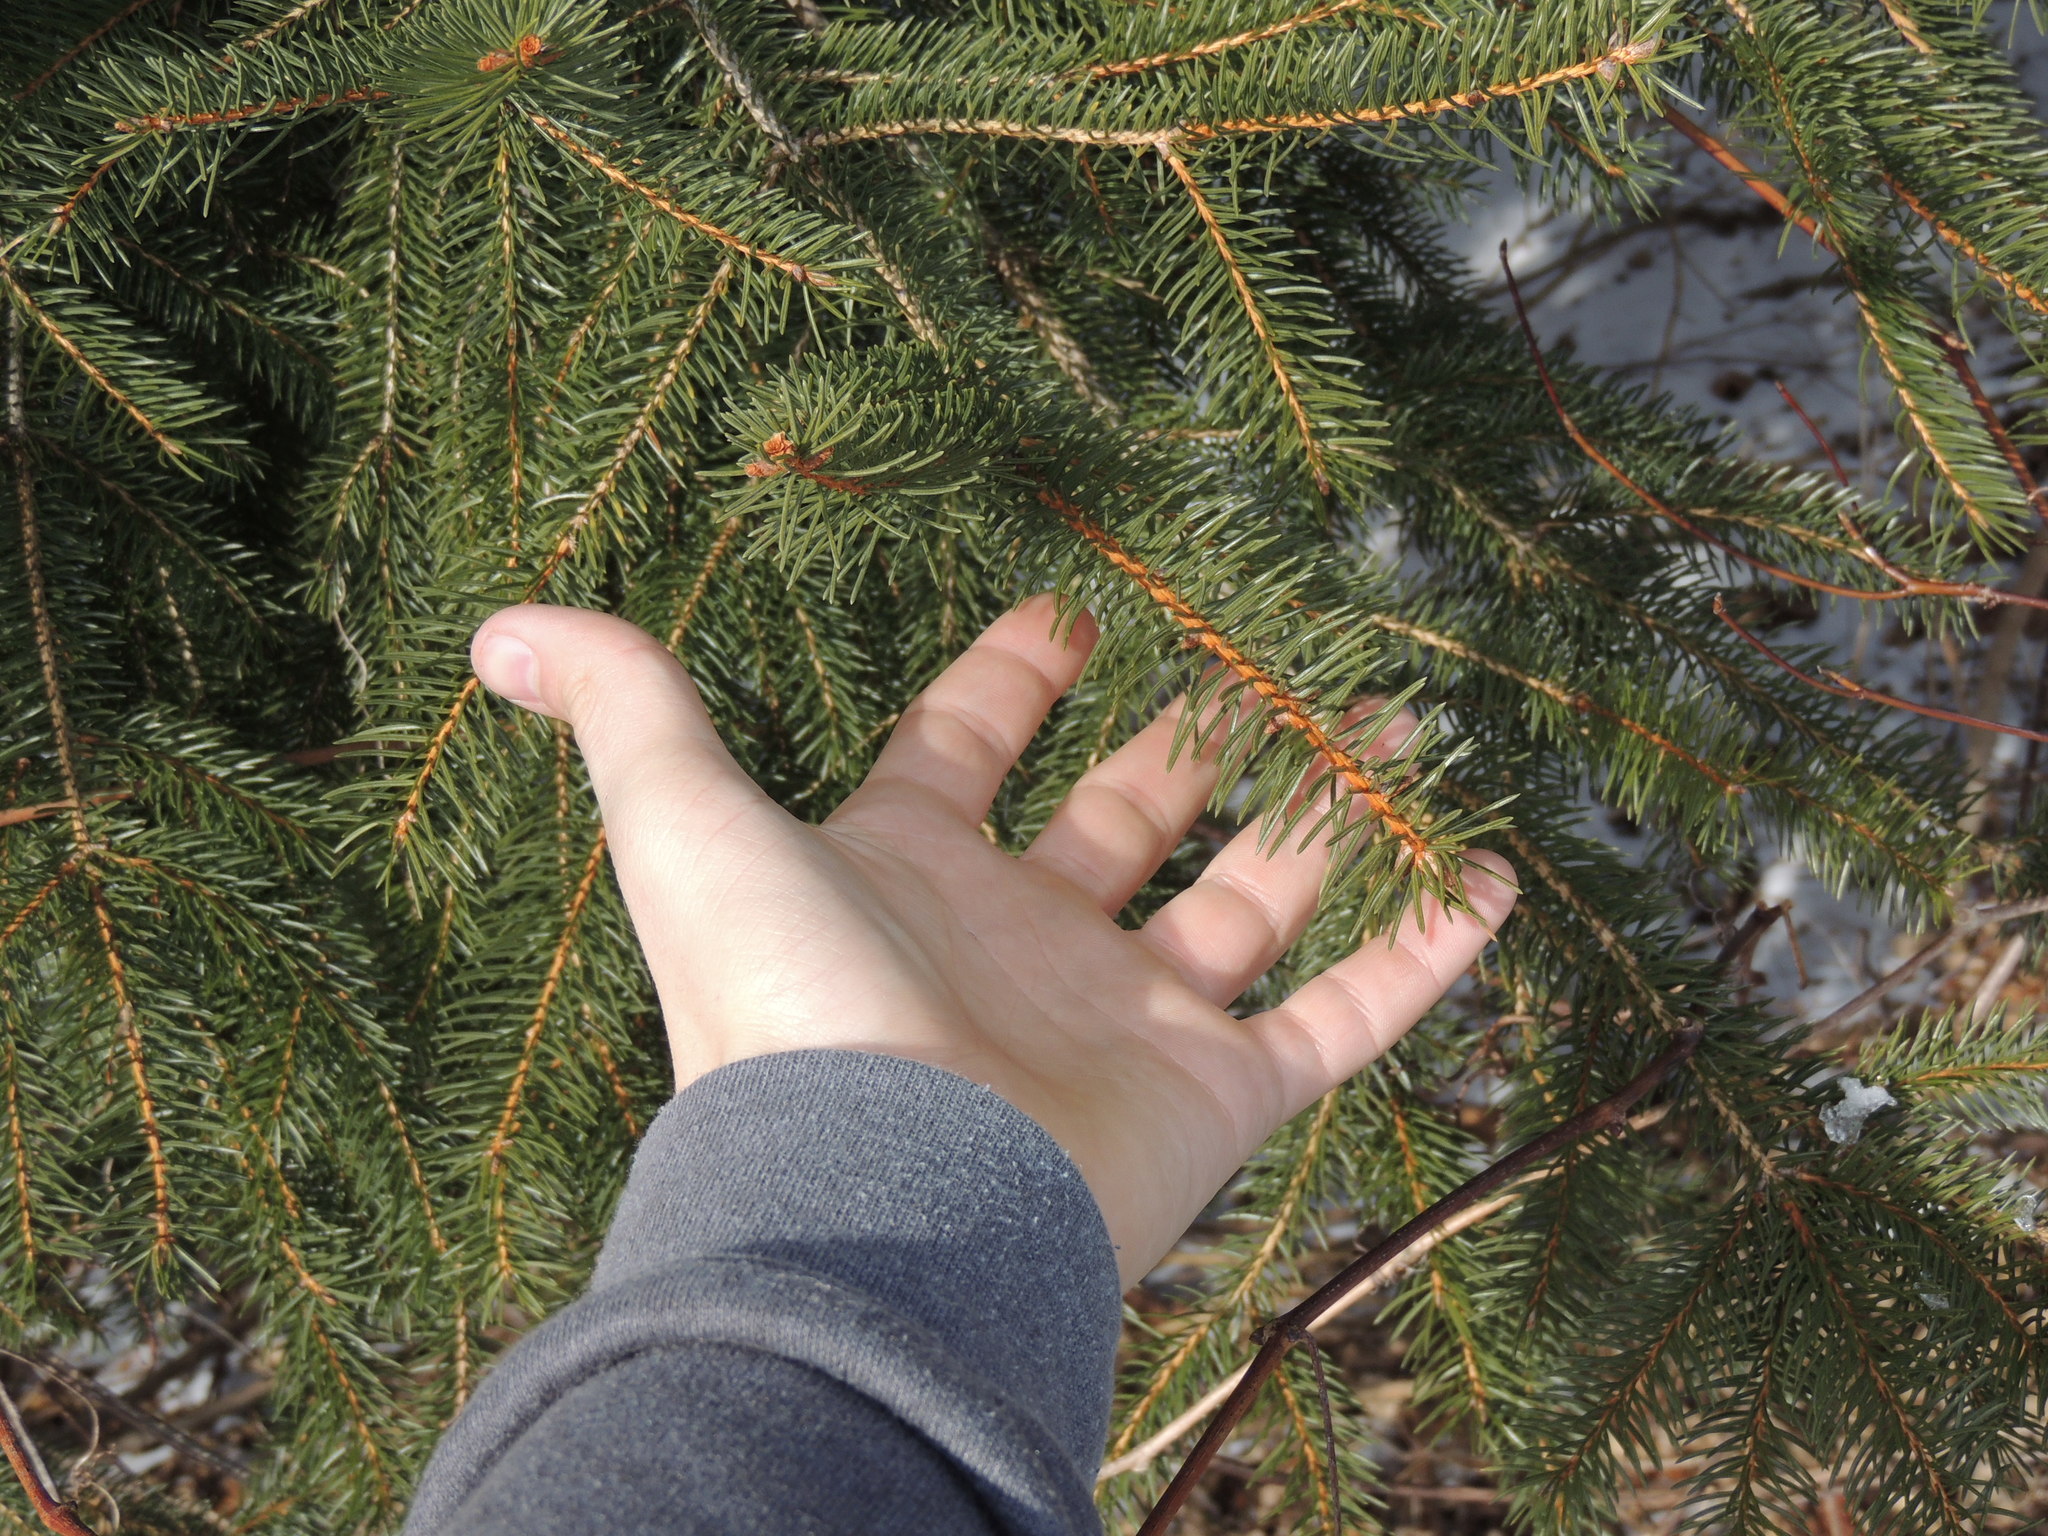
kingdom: Plantae
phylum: Tracheophyta
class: Pinopsida
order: Pinales
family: Pinaceae
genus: Picea
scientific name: Picea abies
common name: Norway spruce
